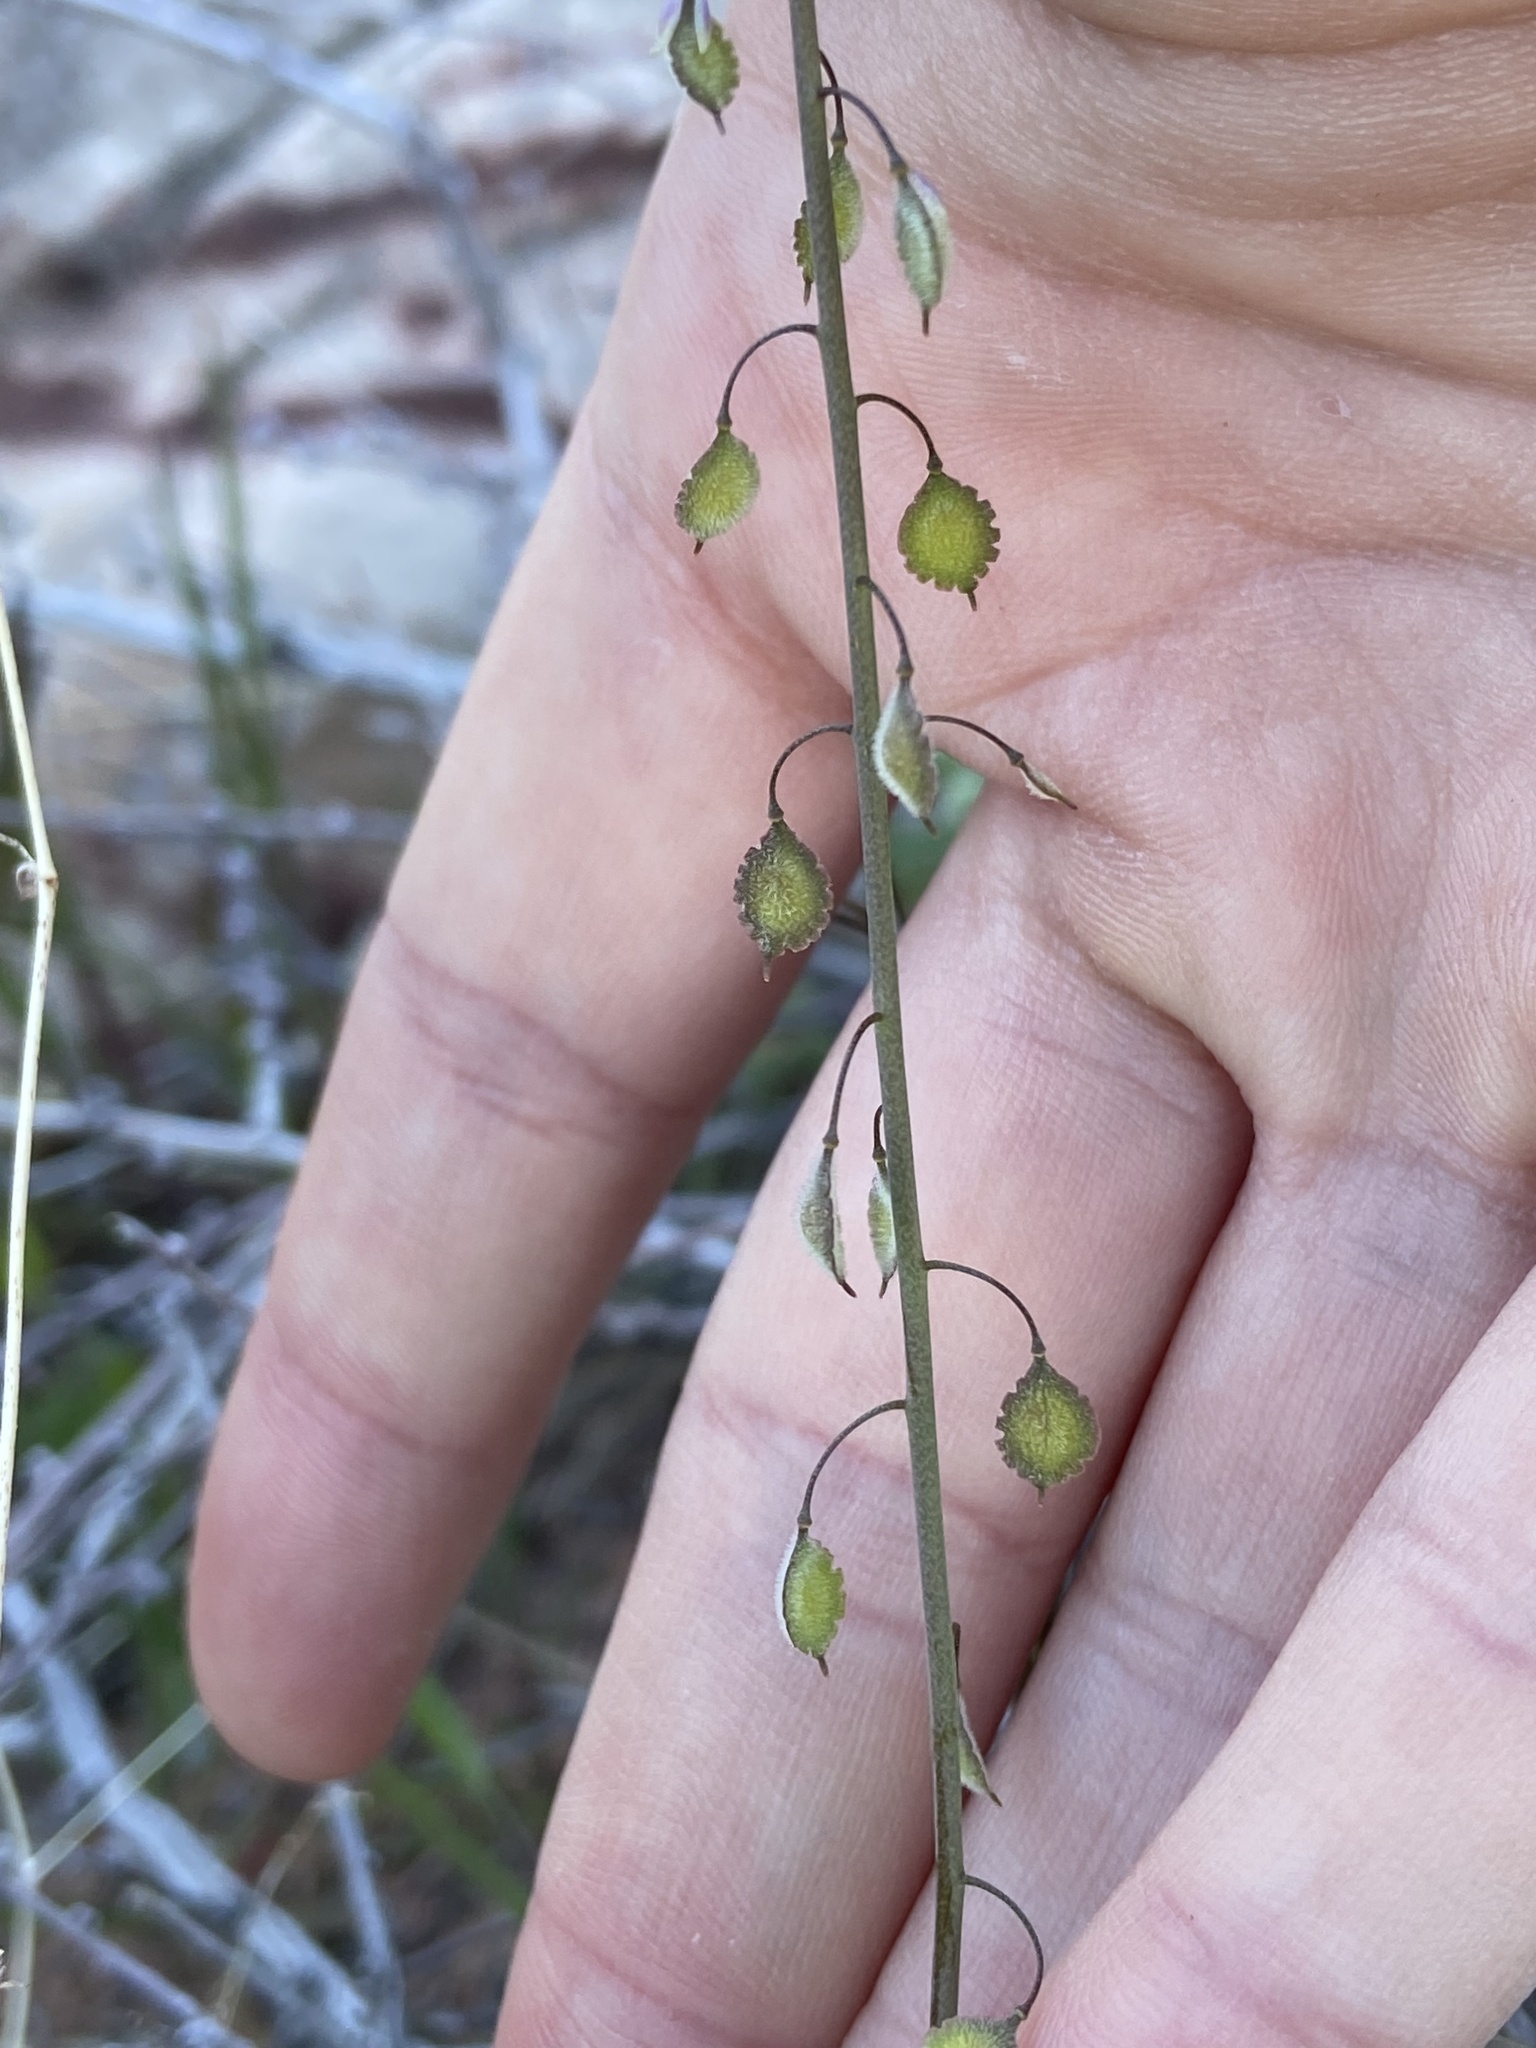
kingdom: Plantae
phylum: Tracheophyta
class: Magnoliopsida
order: Brassicales
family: Brassicaceae
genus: Thysanocarpus
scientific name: Thysanocarpus curvipes
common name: Sand fringepod
